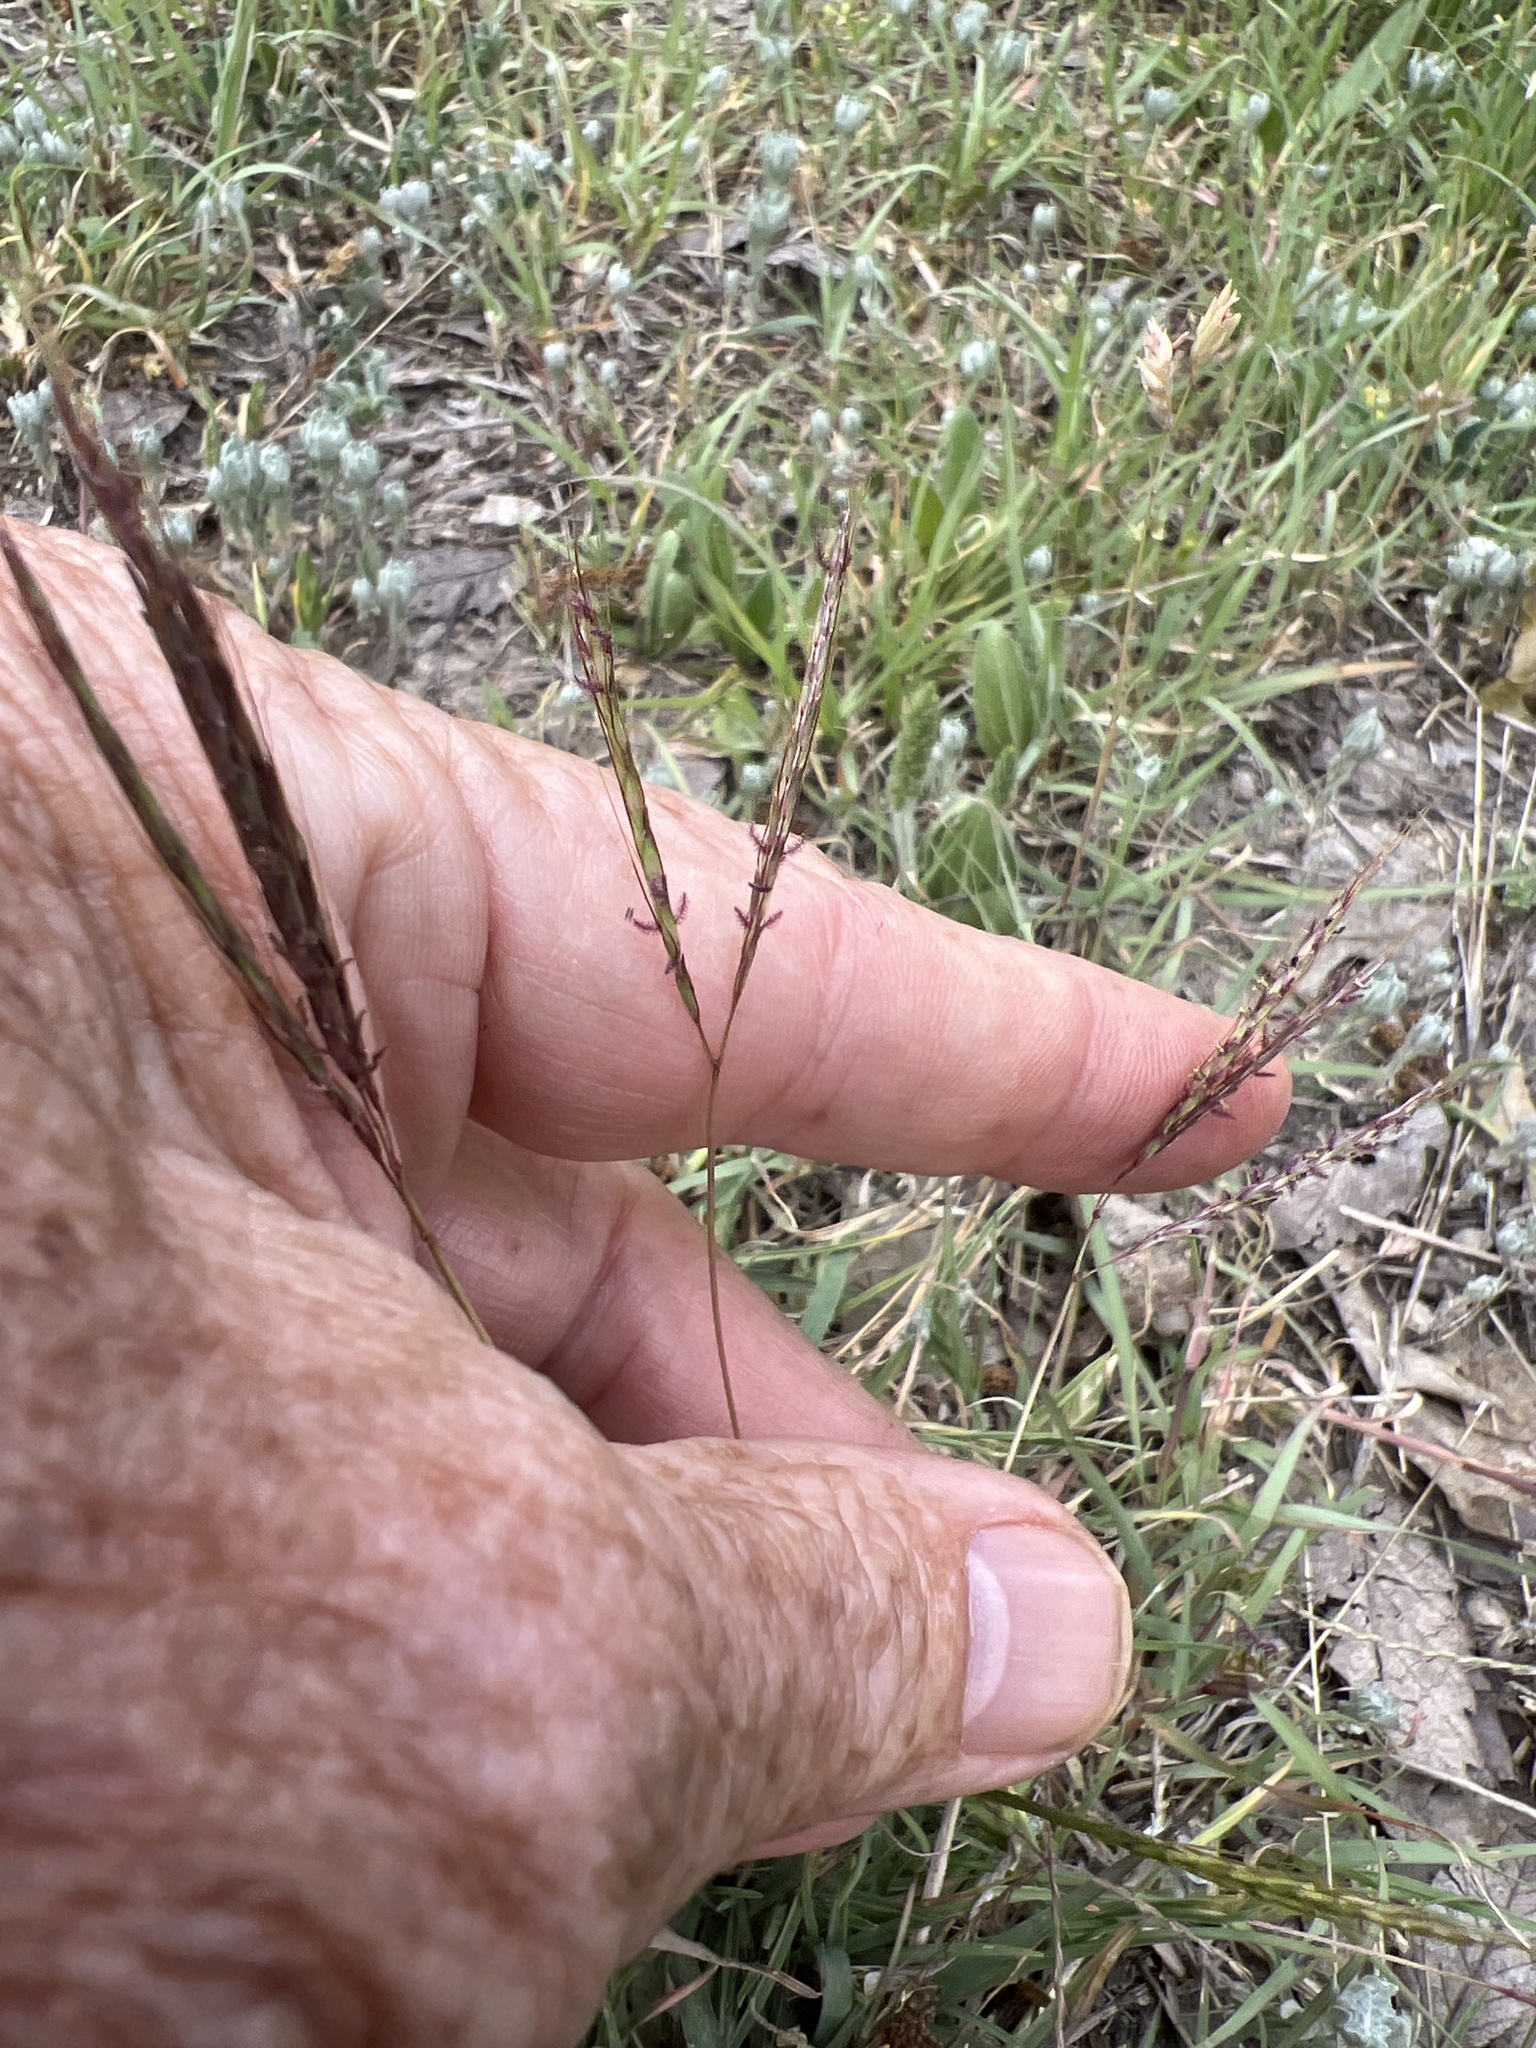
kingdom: Plantae
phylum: Tracheophyta
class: Liliopsida
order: Poales
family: Poaceae
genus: Bothriochloa
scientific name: Bothriochloa ischaemum
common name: Yellow bluestem
